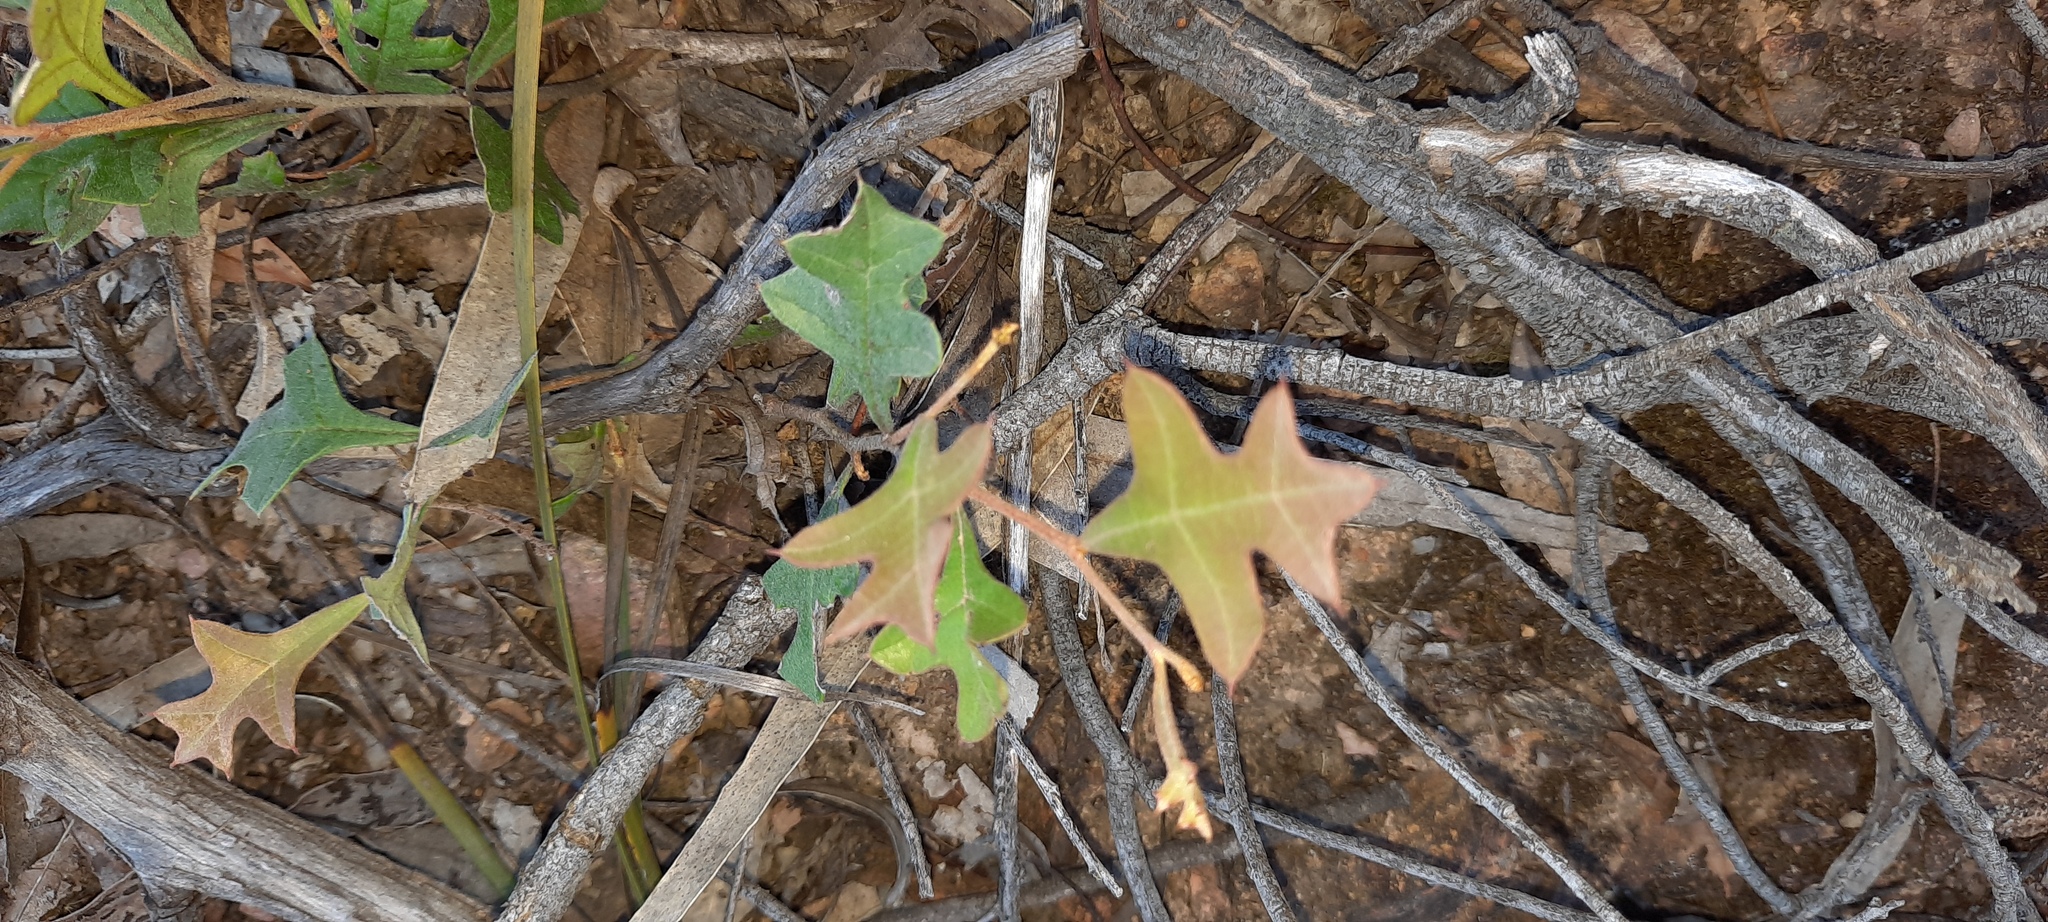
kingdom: Plantae
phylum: Tracheophyta
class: Magnoliopsida
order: Proteales
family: Proteaceae
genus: Grevillea
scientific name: Grevillea dryophylla
